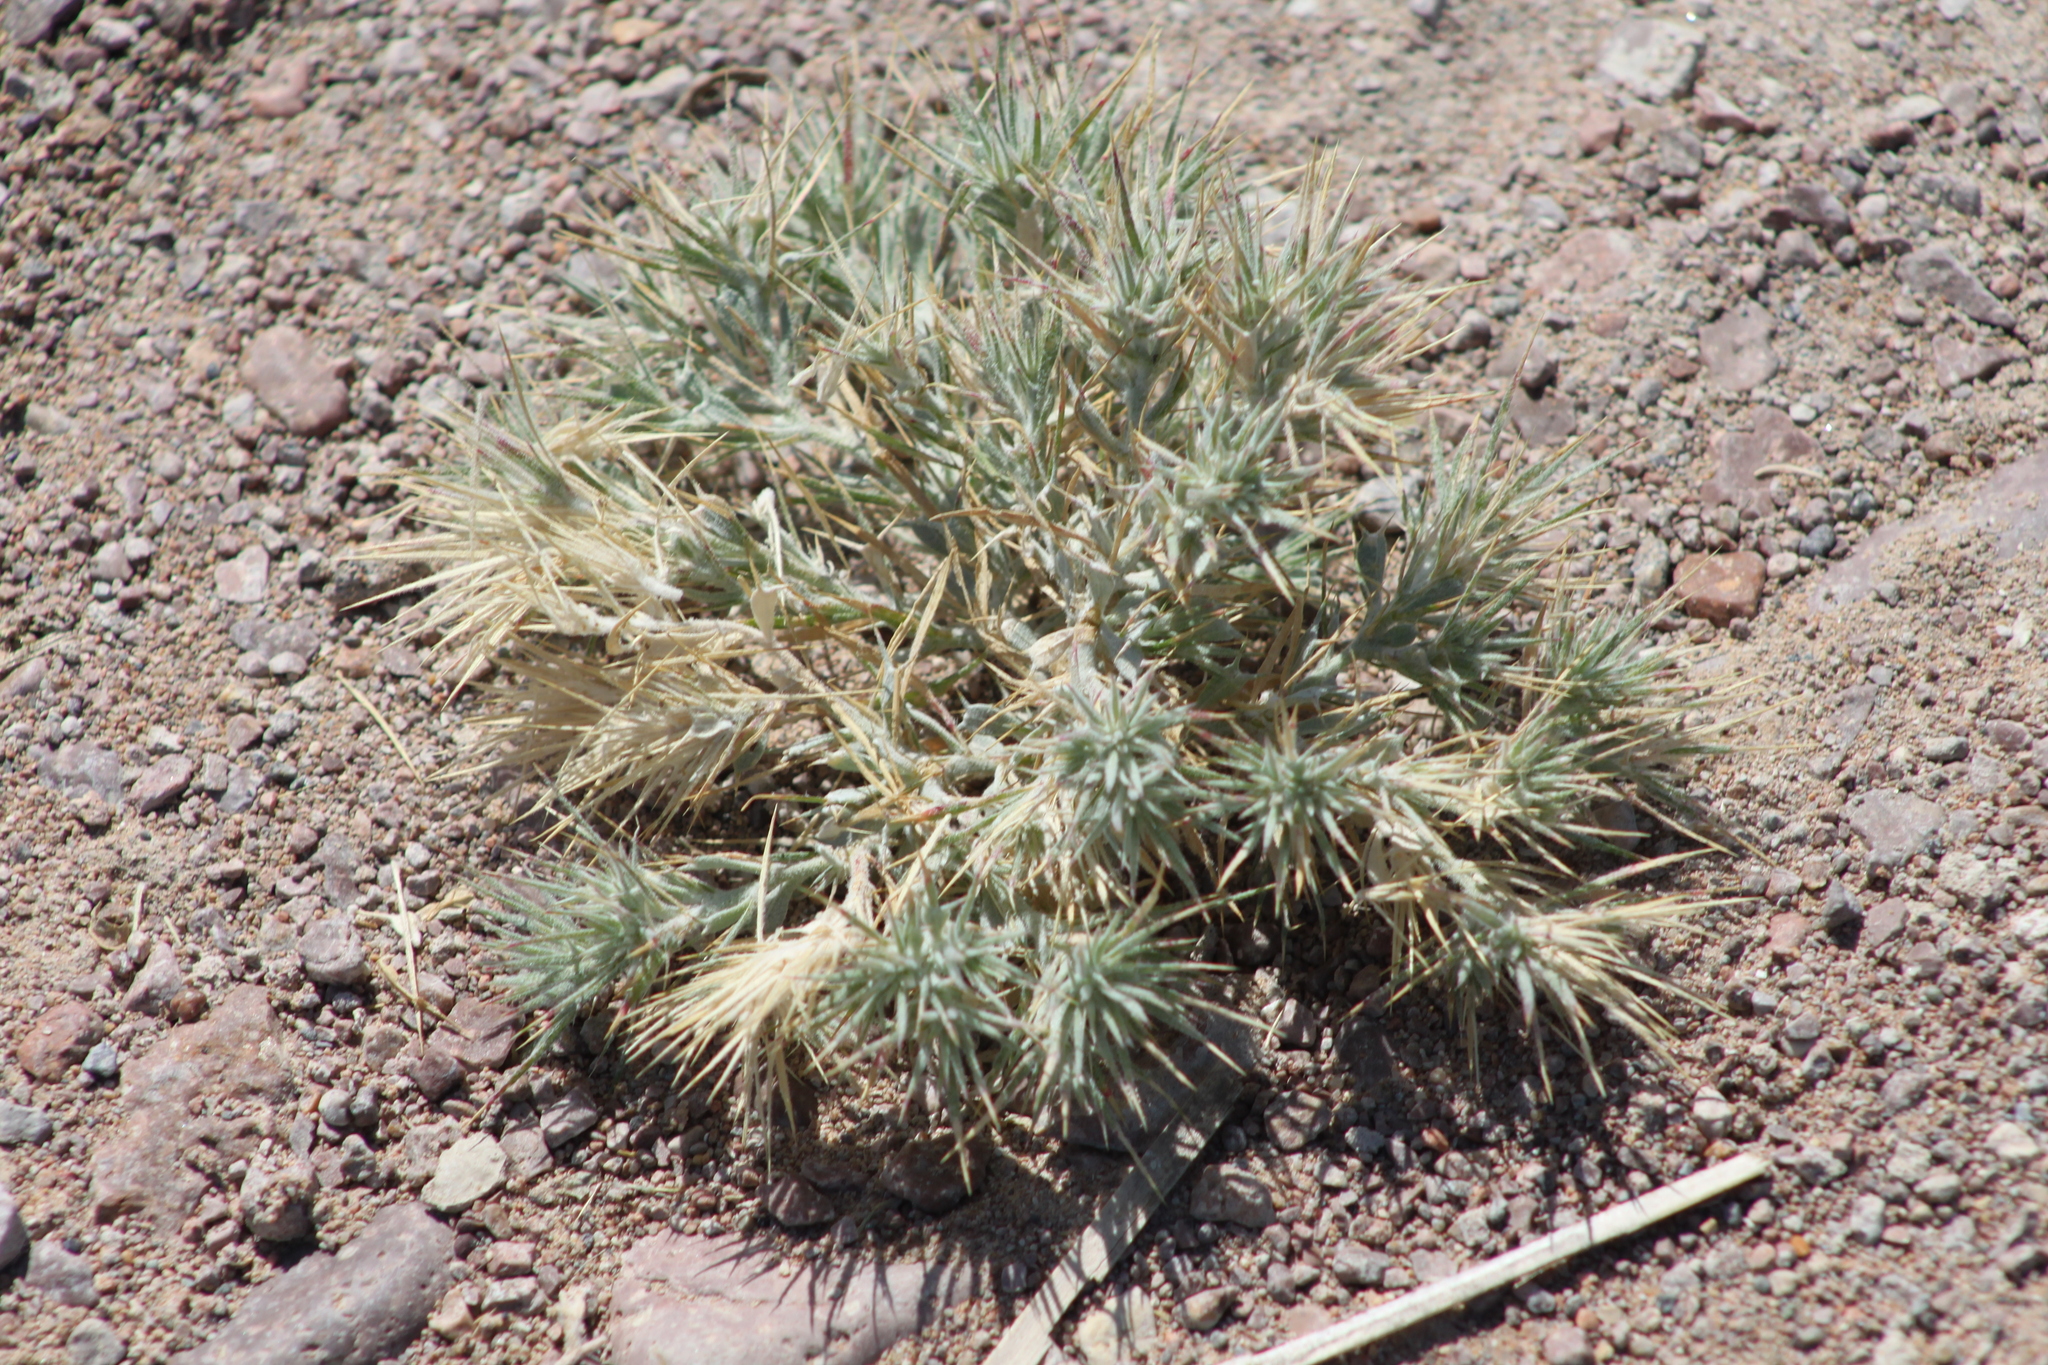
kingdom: Plantae
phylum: Tracheophyta
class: Magnoliopsida
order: Caryophyllales
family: Amaranthaceae
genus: Ceratocarpus
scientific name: Ceratocarpus arenarius
